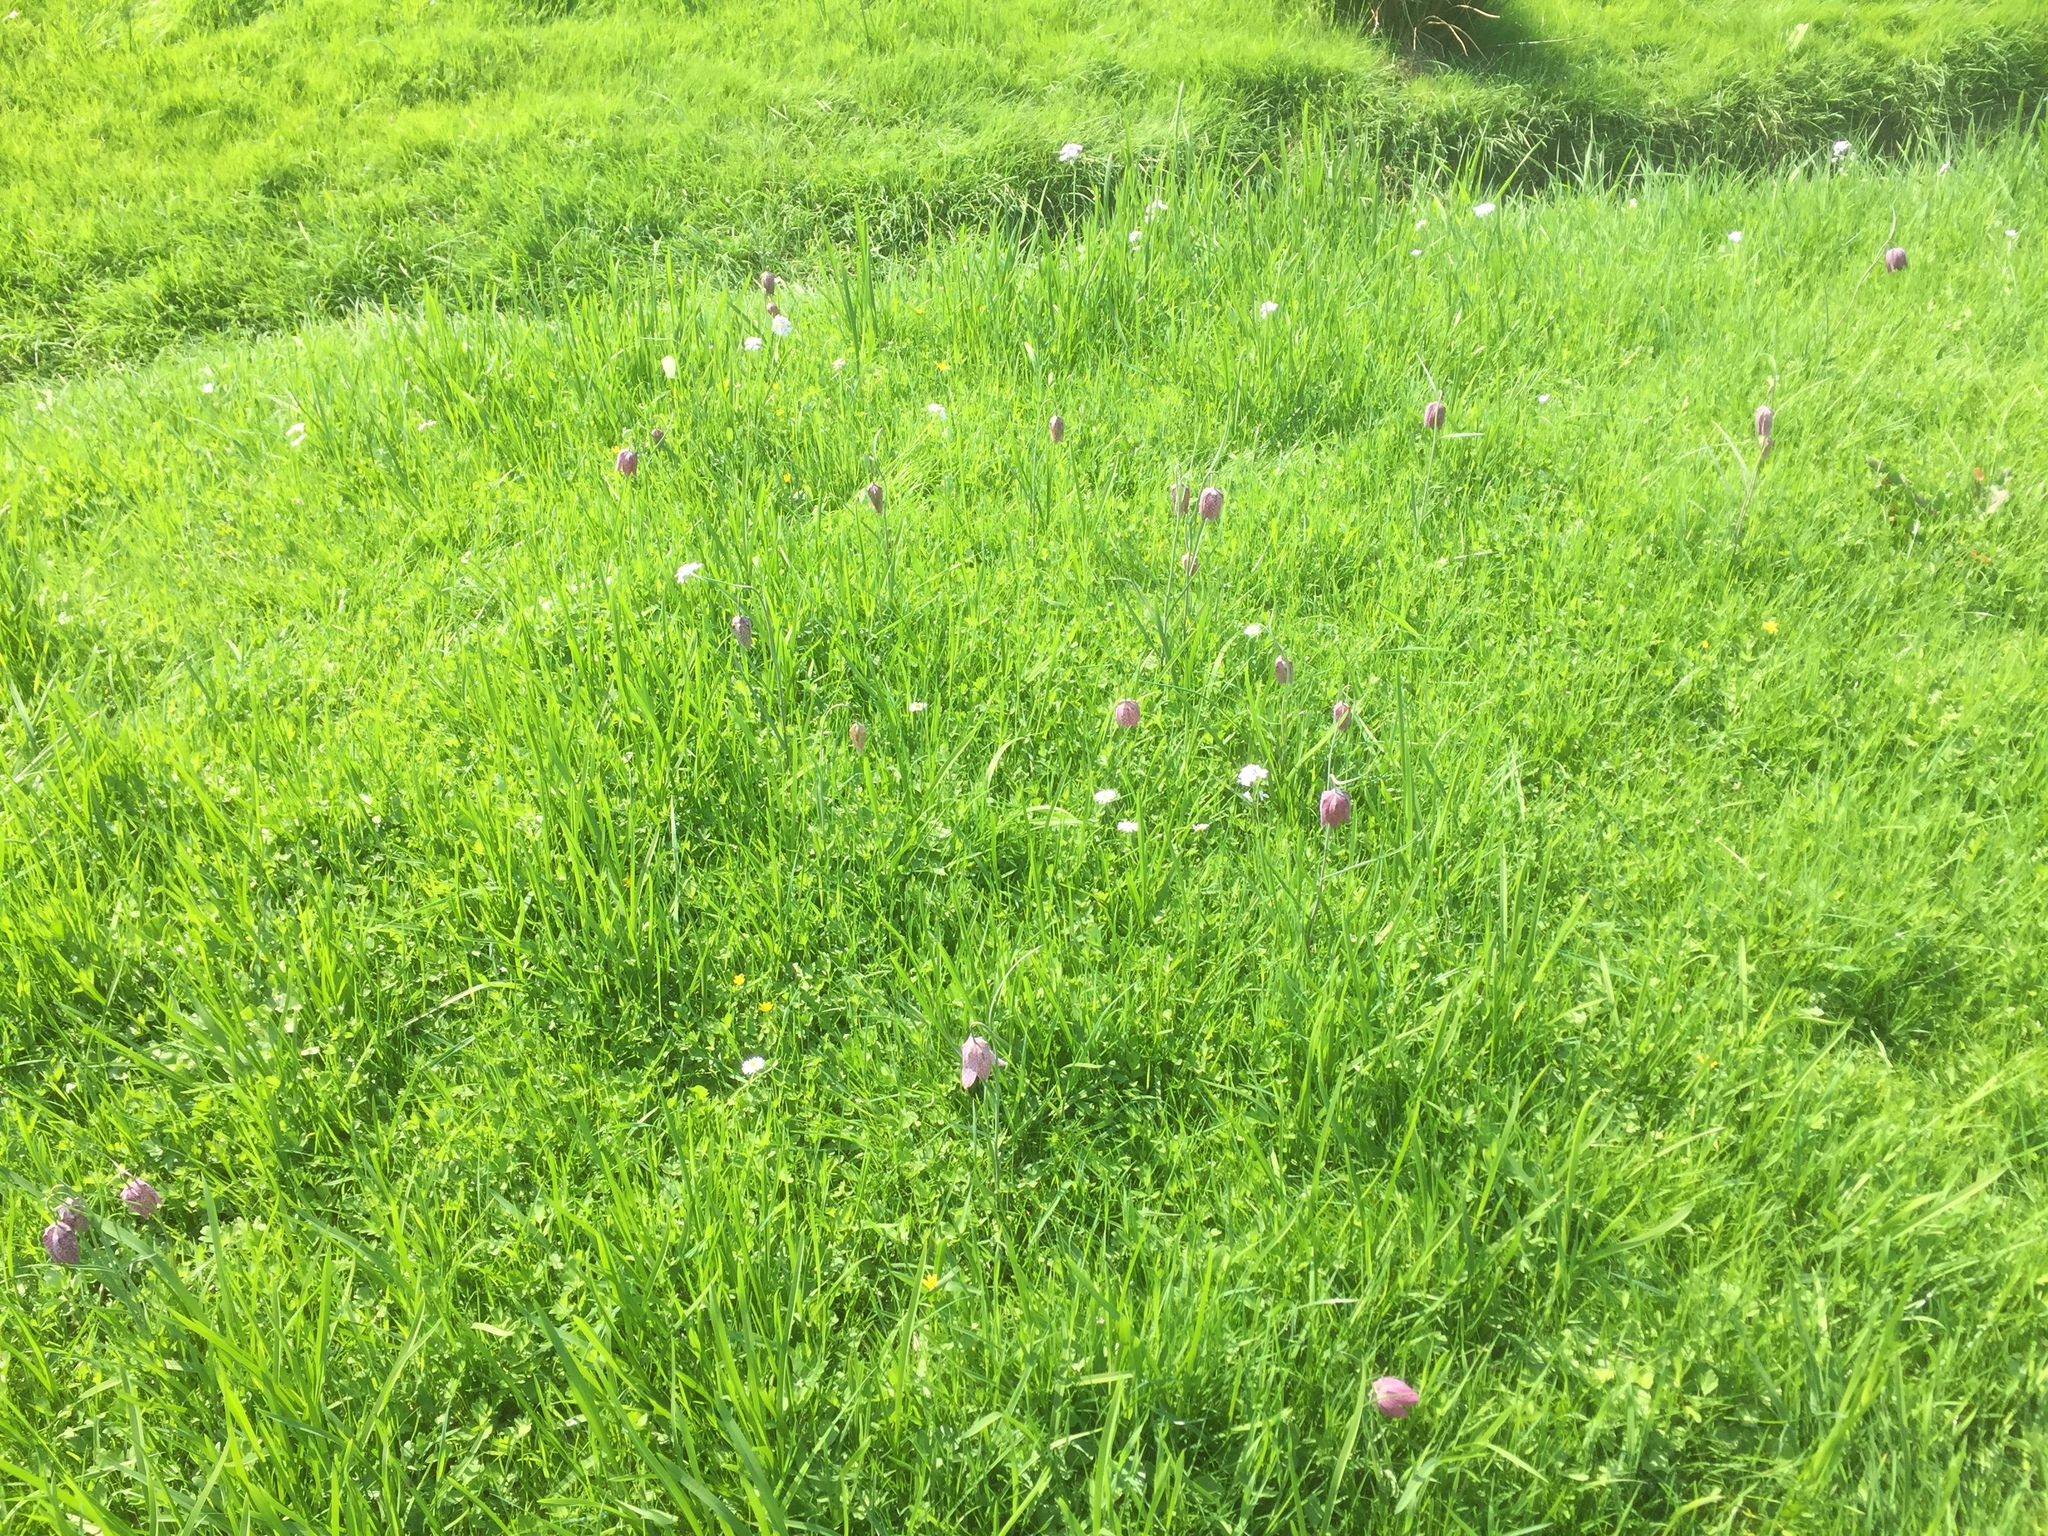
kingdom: Plantae
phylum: Tracheophyta
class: Liliopsida
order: Liliales
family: Liliaceae
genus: Fritillaria
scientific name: Fritillaria meleagris
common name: Fritillary
